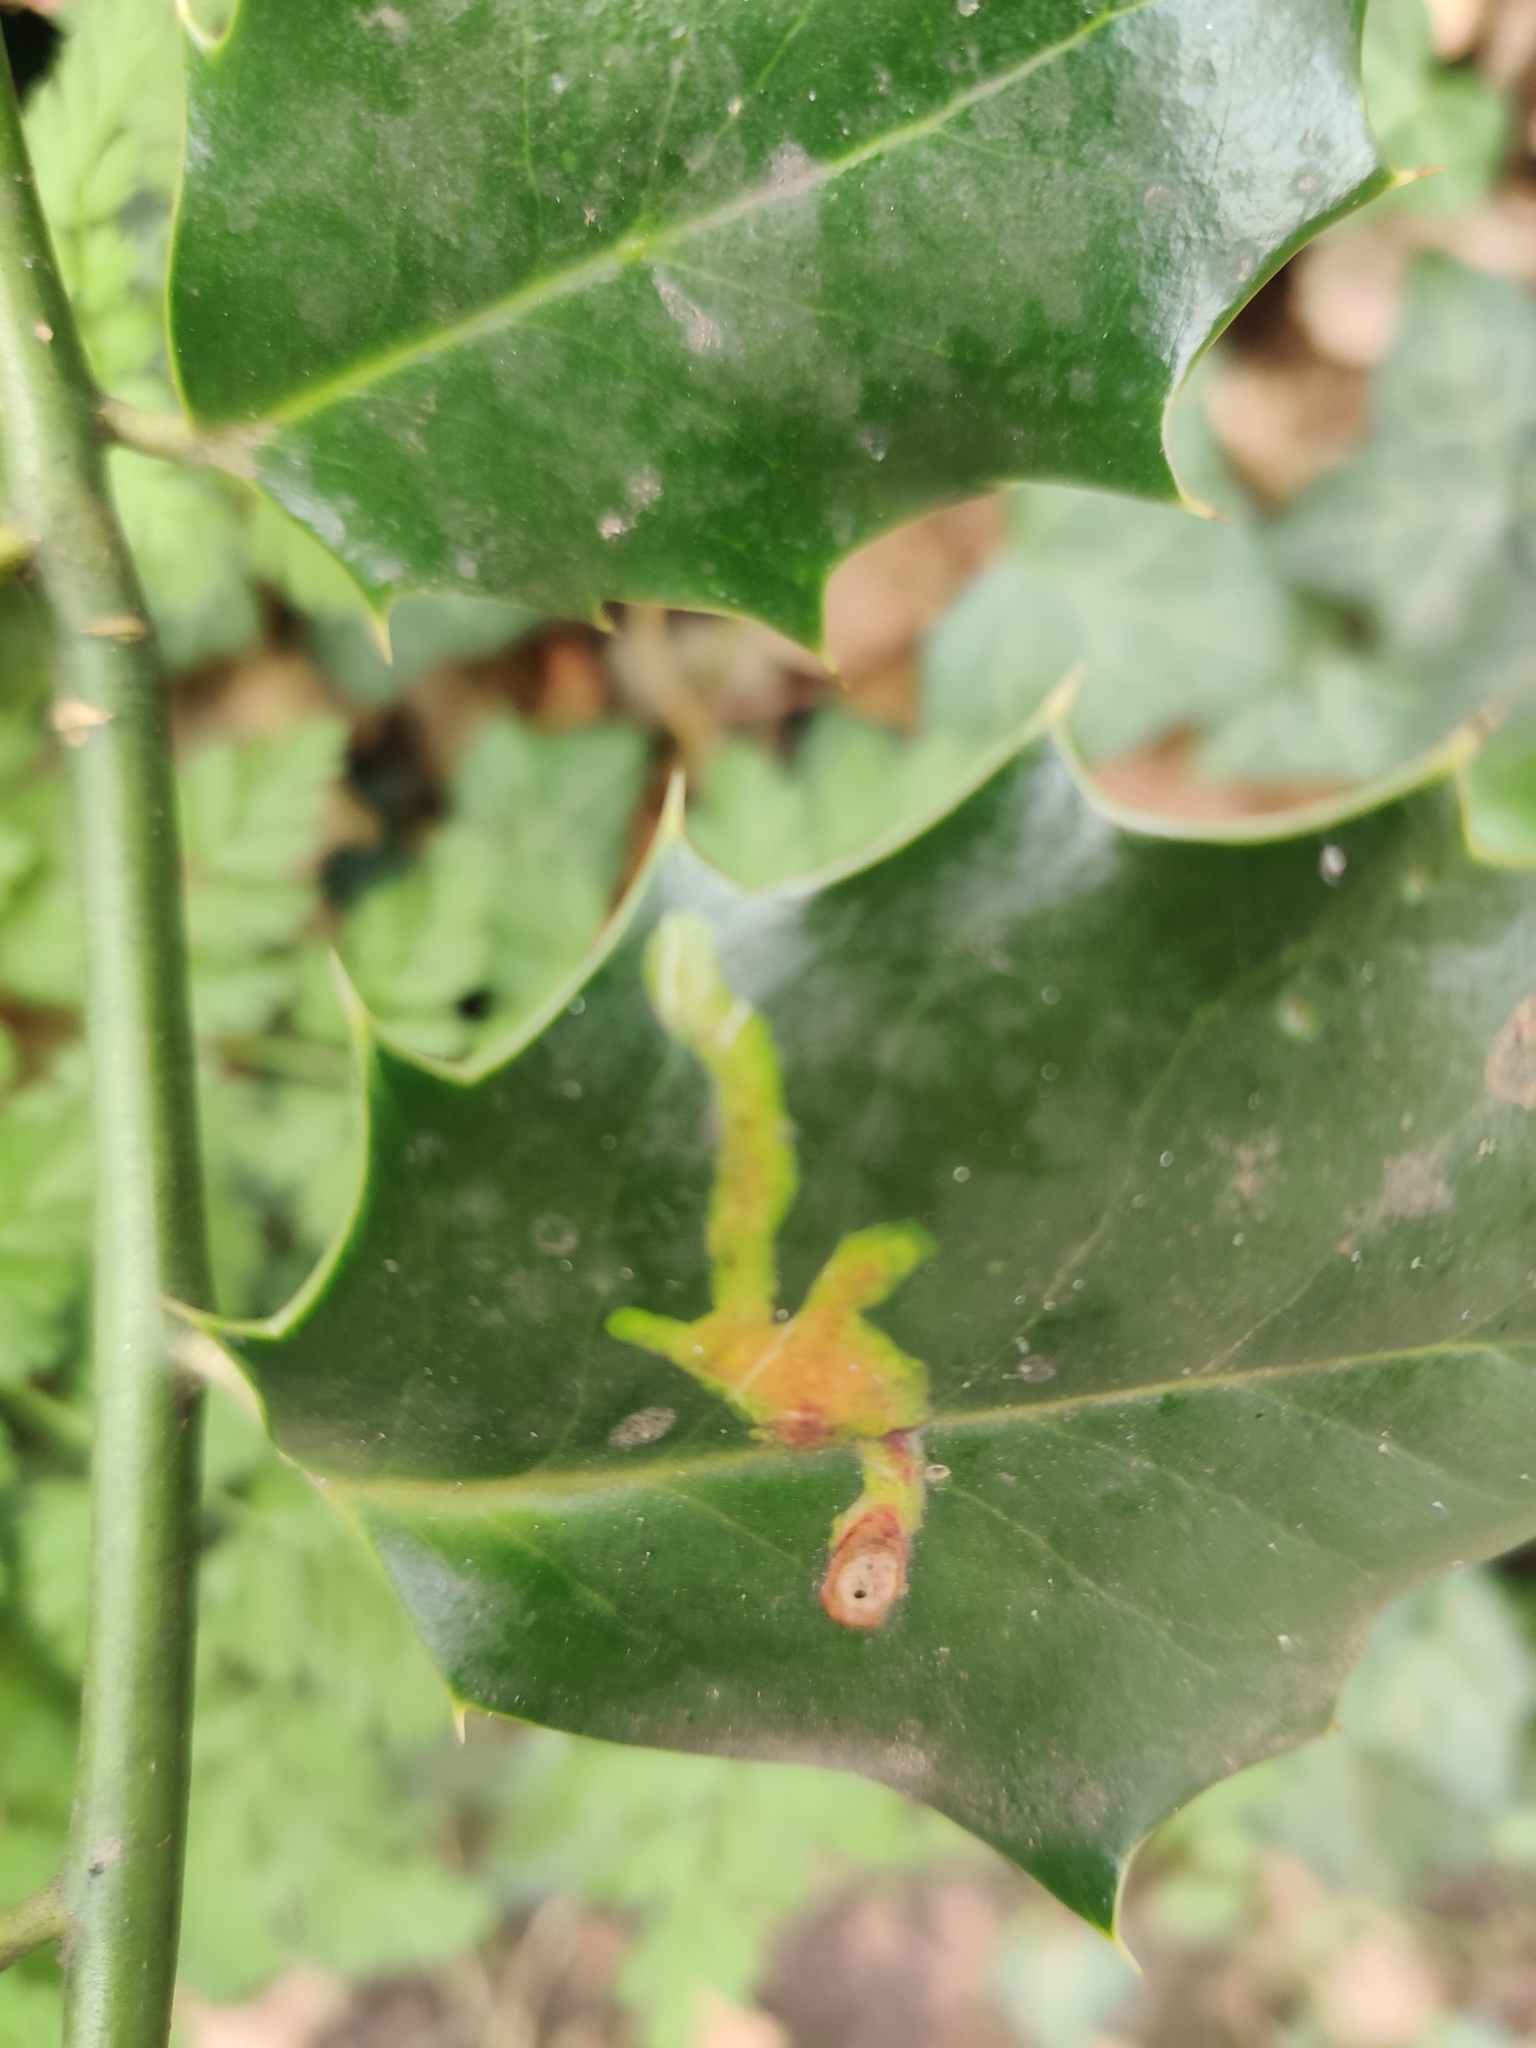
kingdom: Animalia
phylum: Arthropoda
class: Insecta
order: Diptera
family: Agromyzidae
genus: Phytomyza
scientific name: Phytomyza ilicis
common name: Holly leafminer
